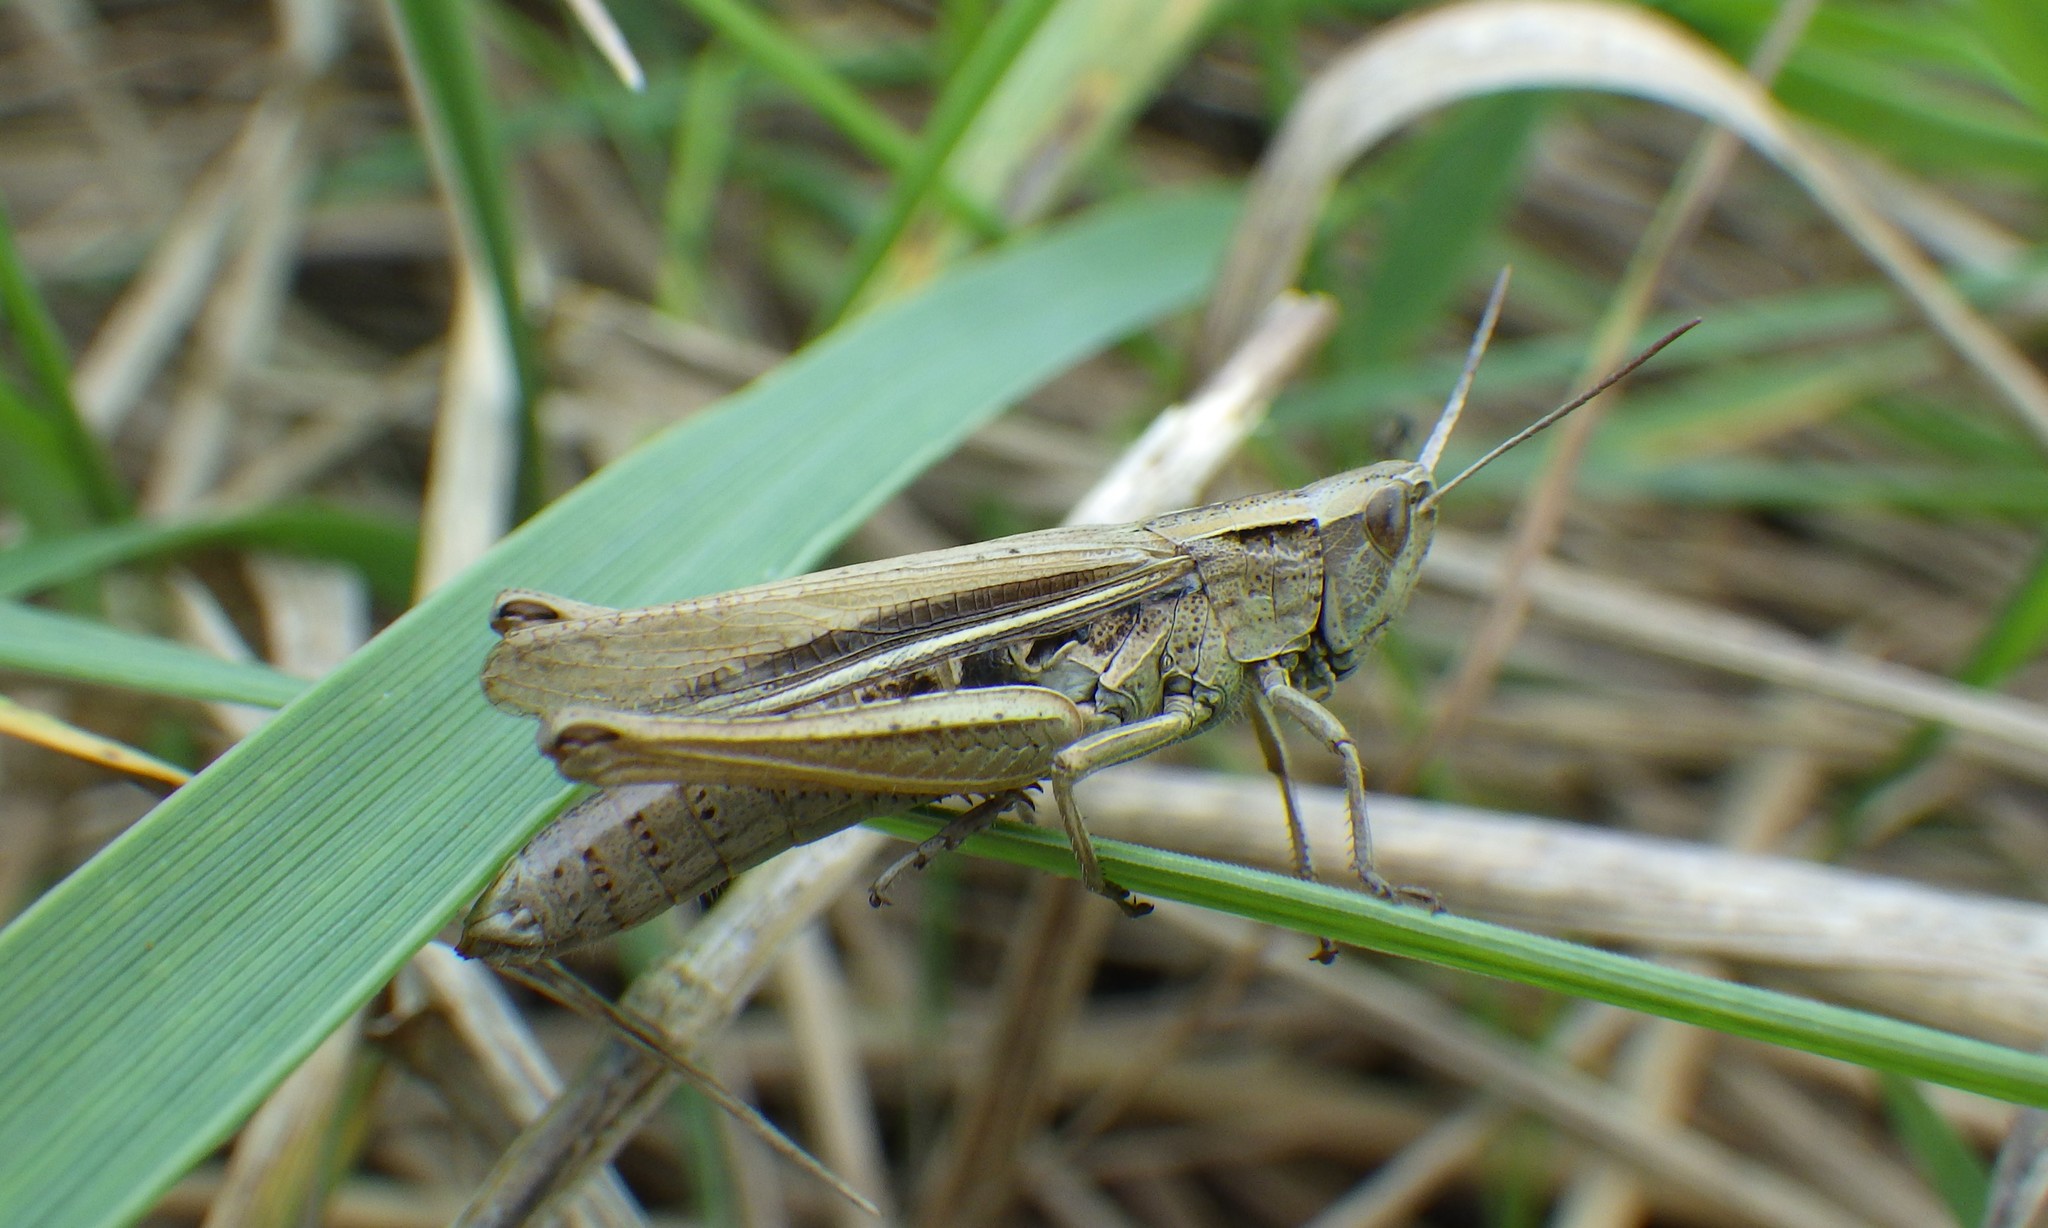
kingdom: Animalia
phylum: Arthropoda
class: Insecta
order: Orthoptera
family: Acrididae
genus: Chorthippus
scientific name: Chorthippus albomarginatus
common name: Lesser marsh grasshopper
